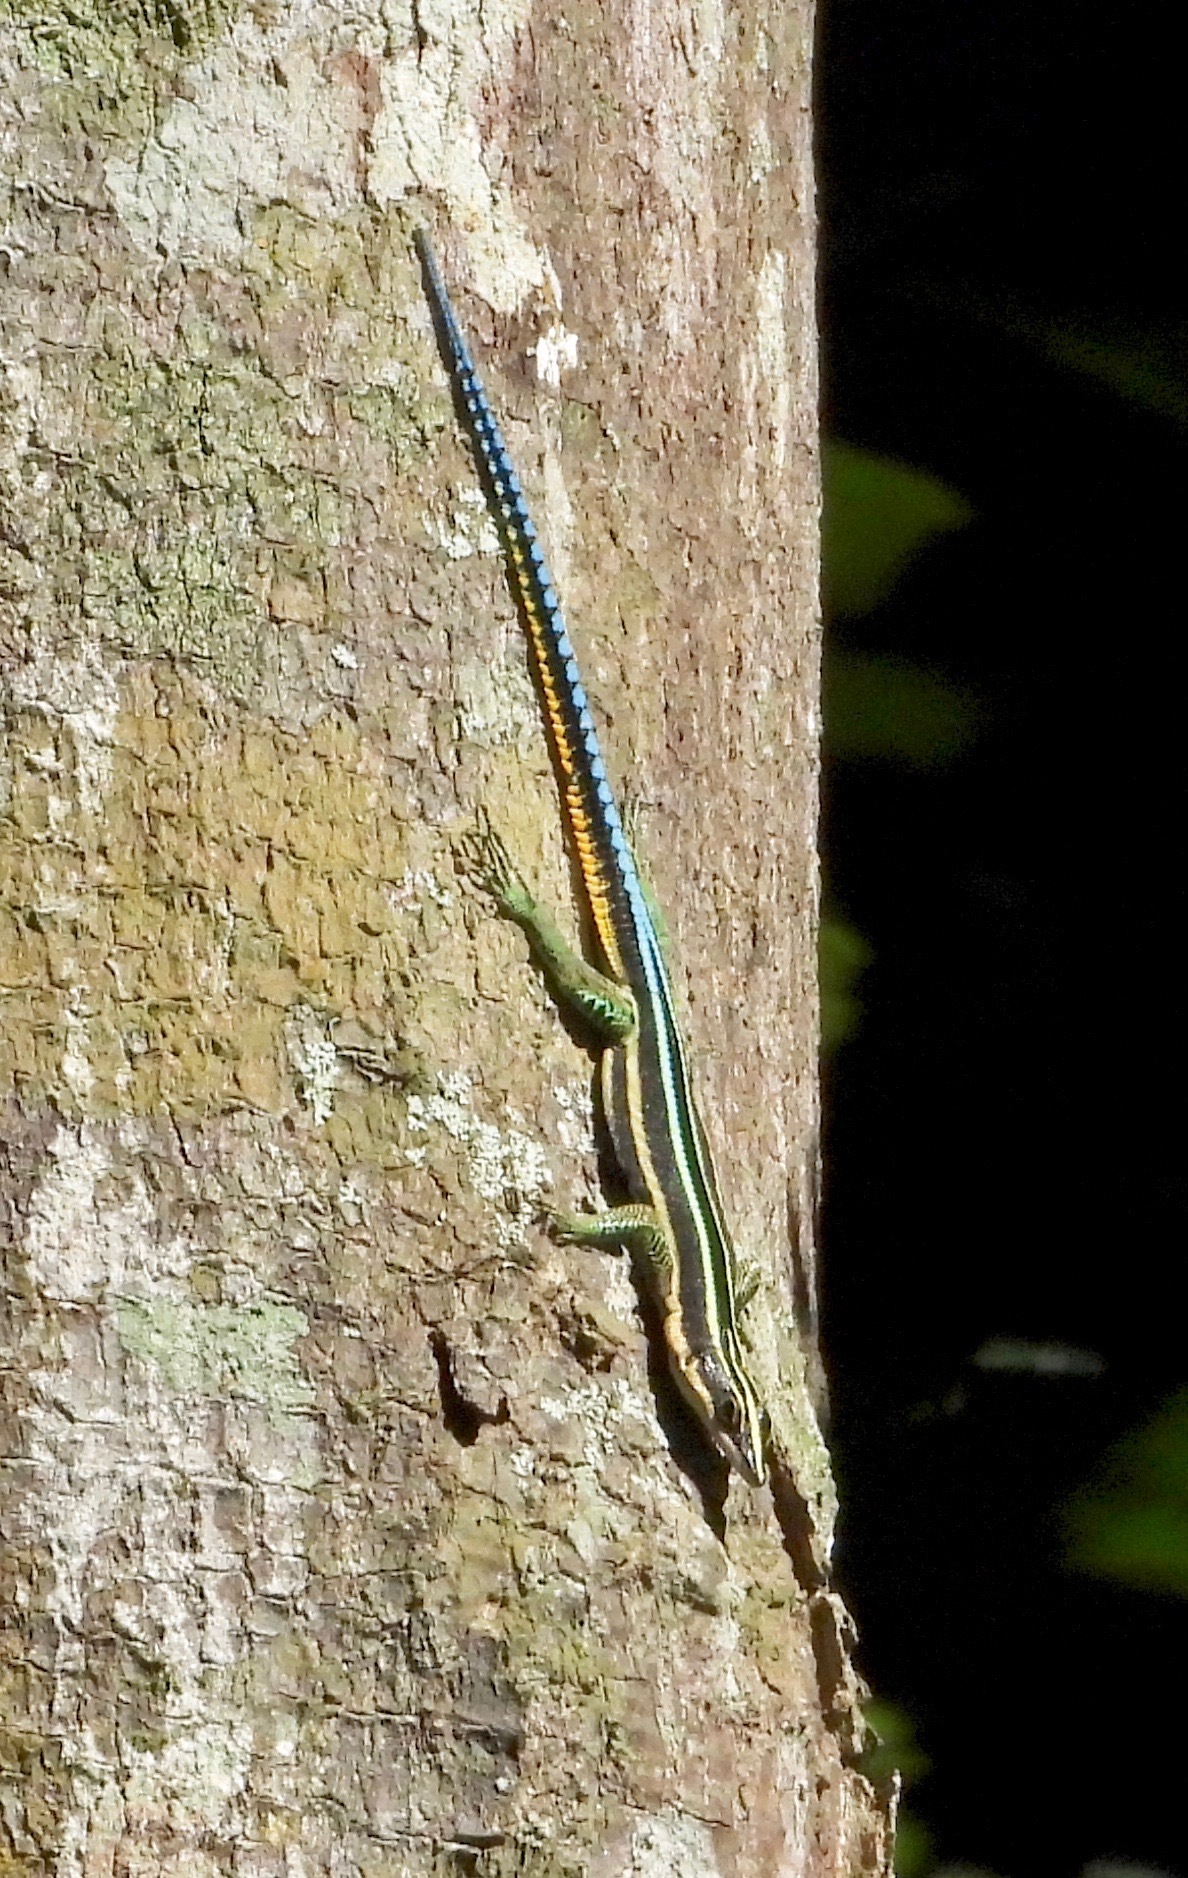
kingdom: Animalia
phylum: Chordata
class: Squamata
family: Lacertidae
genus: Holaspis
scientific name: Holaspis laevis
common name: Eastern serrate-toed tree lizard
